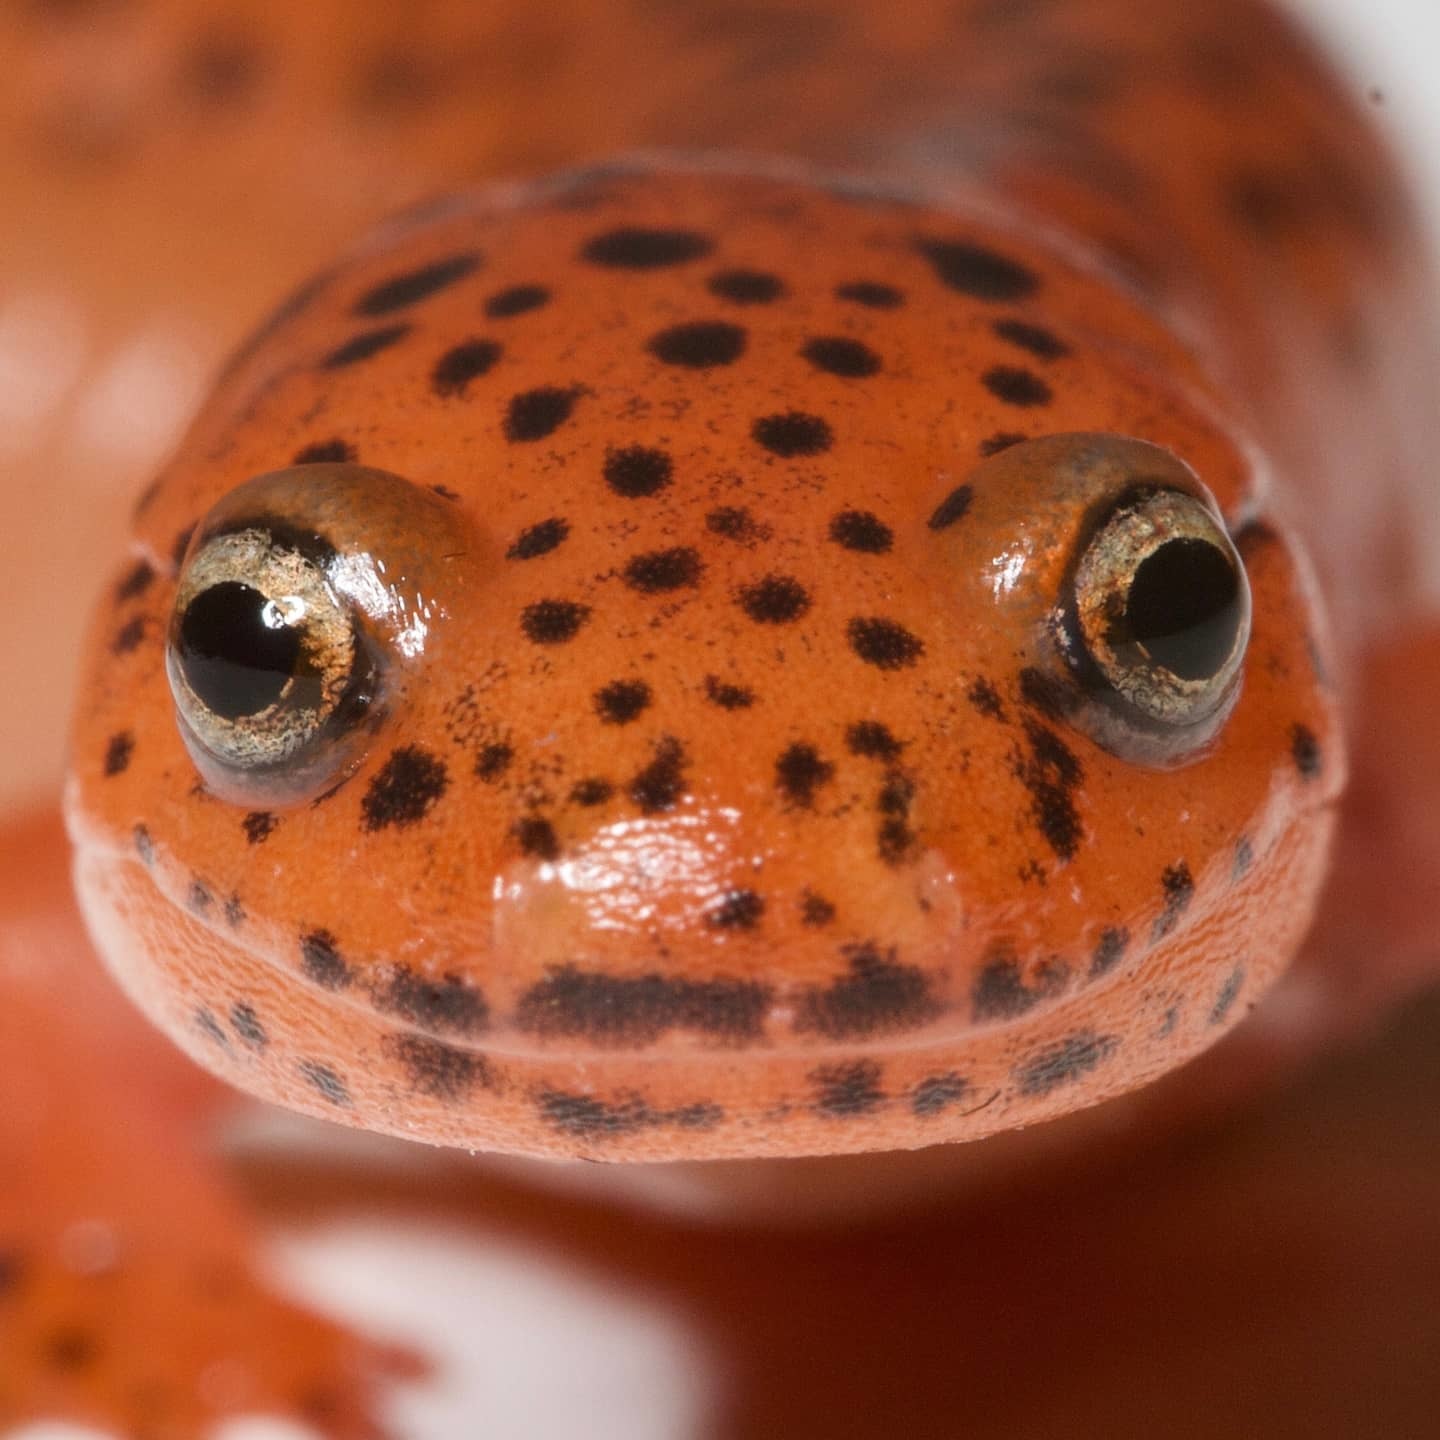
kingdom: Animalia
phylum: Chordata
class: Amphibia
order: Caudata
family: Plethodontidae
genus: Pseudotriton
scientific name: Pseudotriton ruber
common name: Red salamander
